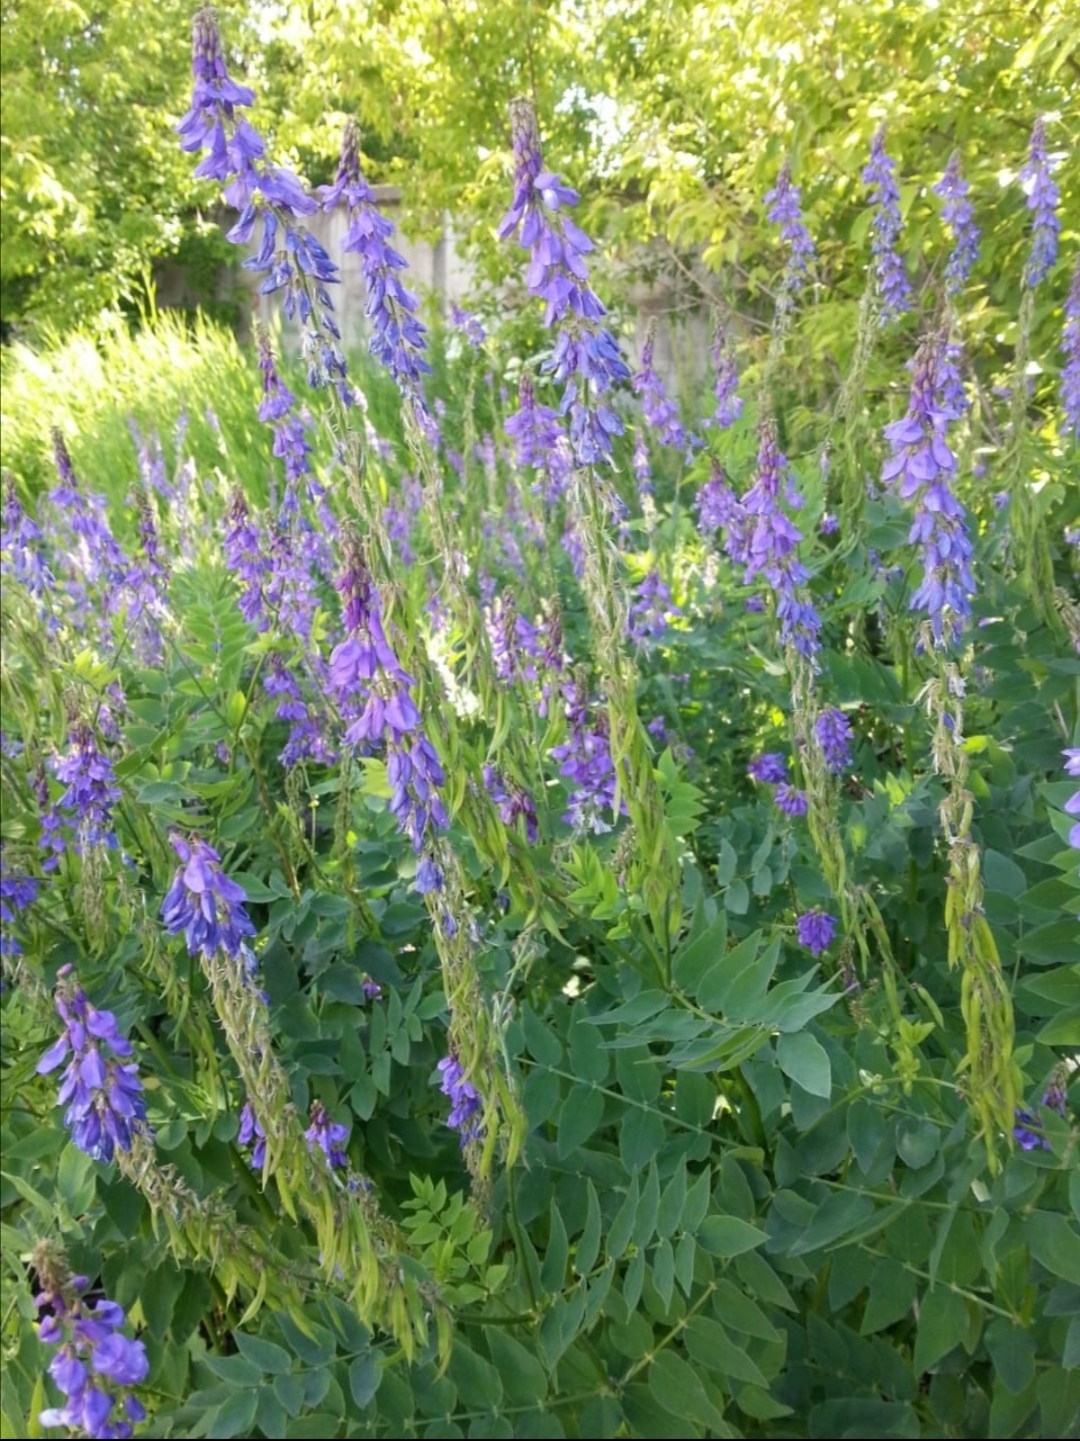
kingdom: Plantae
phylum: Tracheophyta
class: Magnoliopsida
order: Fabales
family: Fabaceae
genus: Galega
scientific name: Galega orientalis
